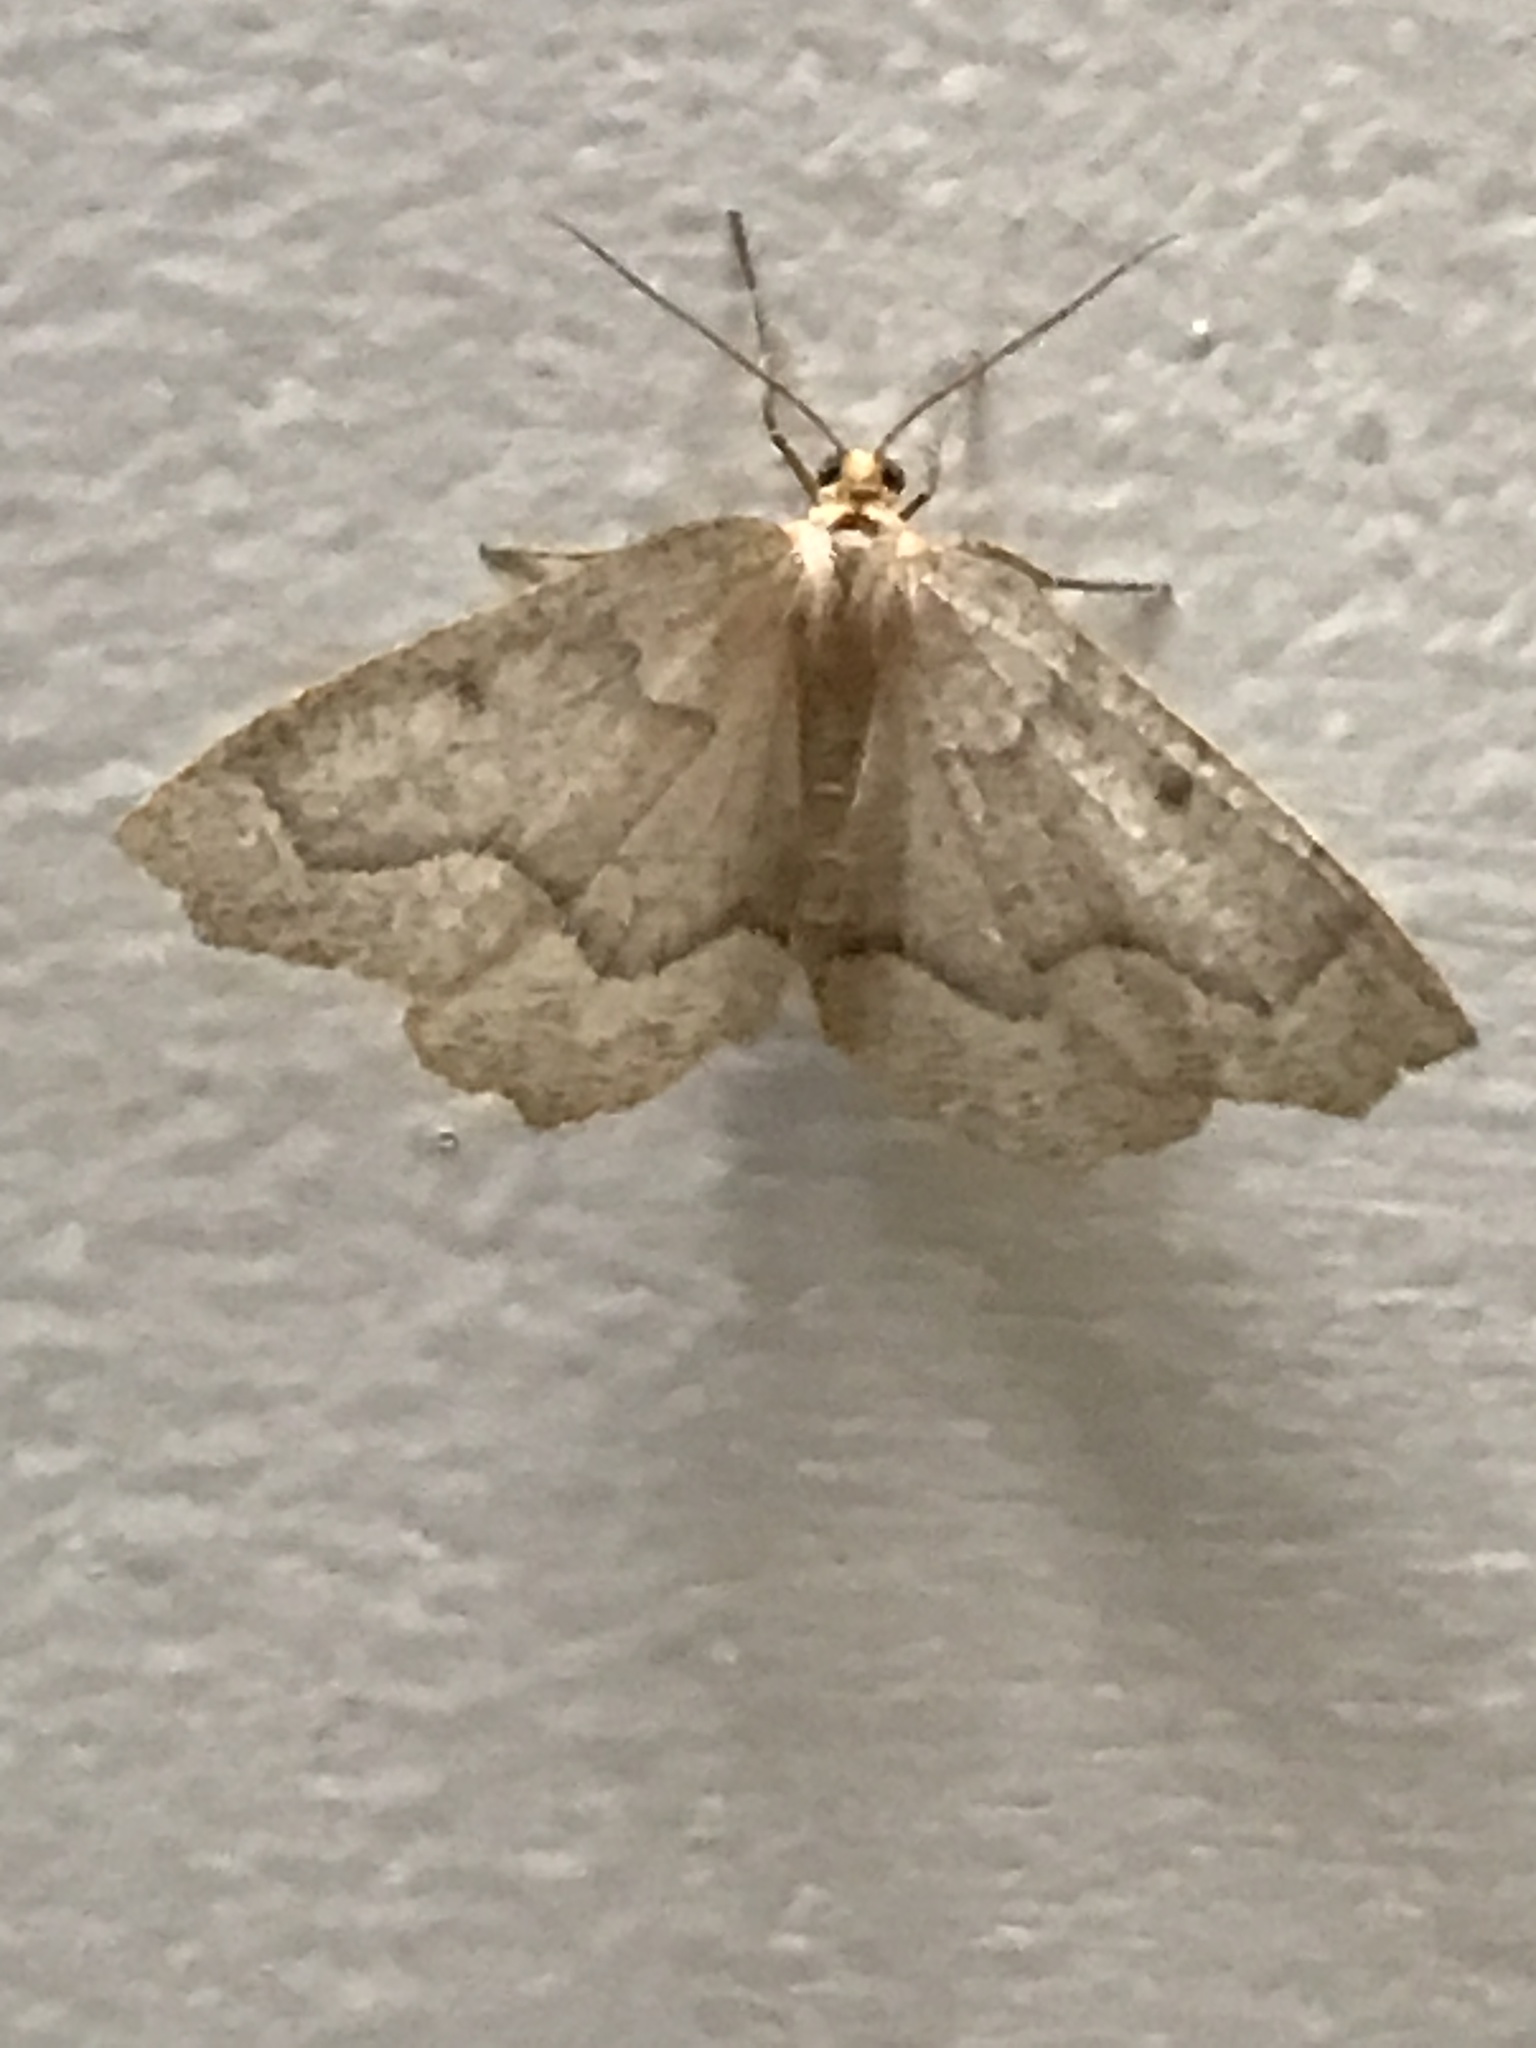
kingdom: Animalia
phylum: Arthropoda
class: Insecta
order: Lepidoptera
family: Geometridae
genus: Lambdina
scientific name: Lambdina fiscellaria
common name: Hemlock looper
